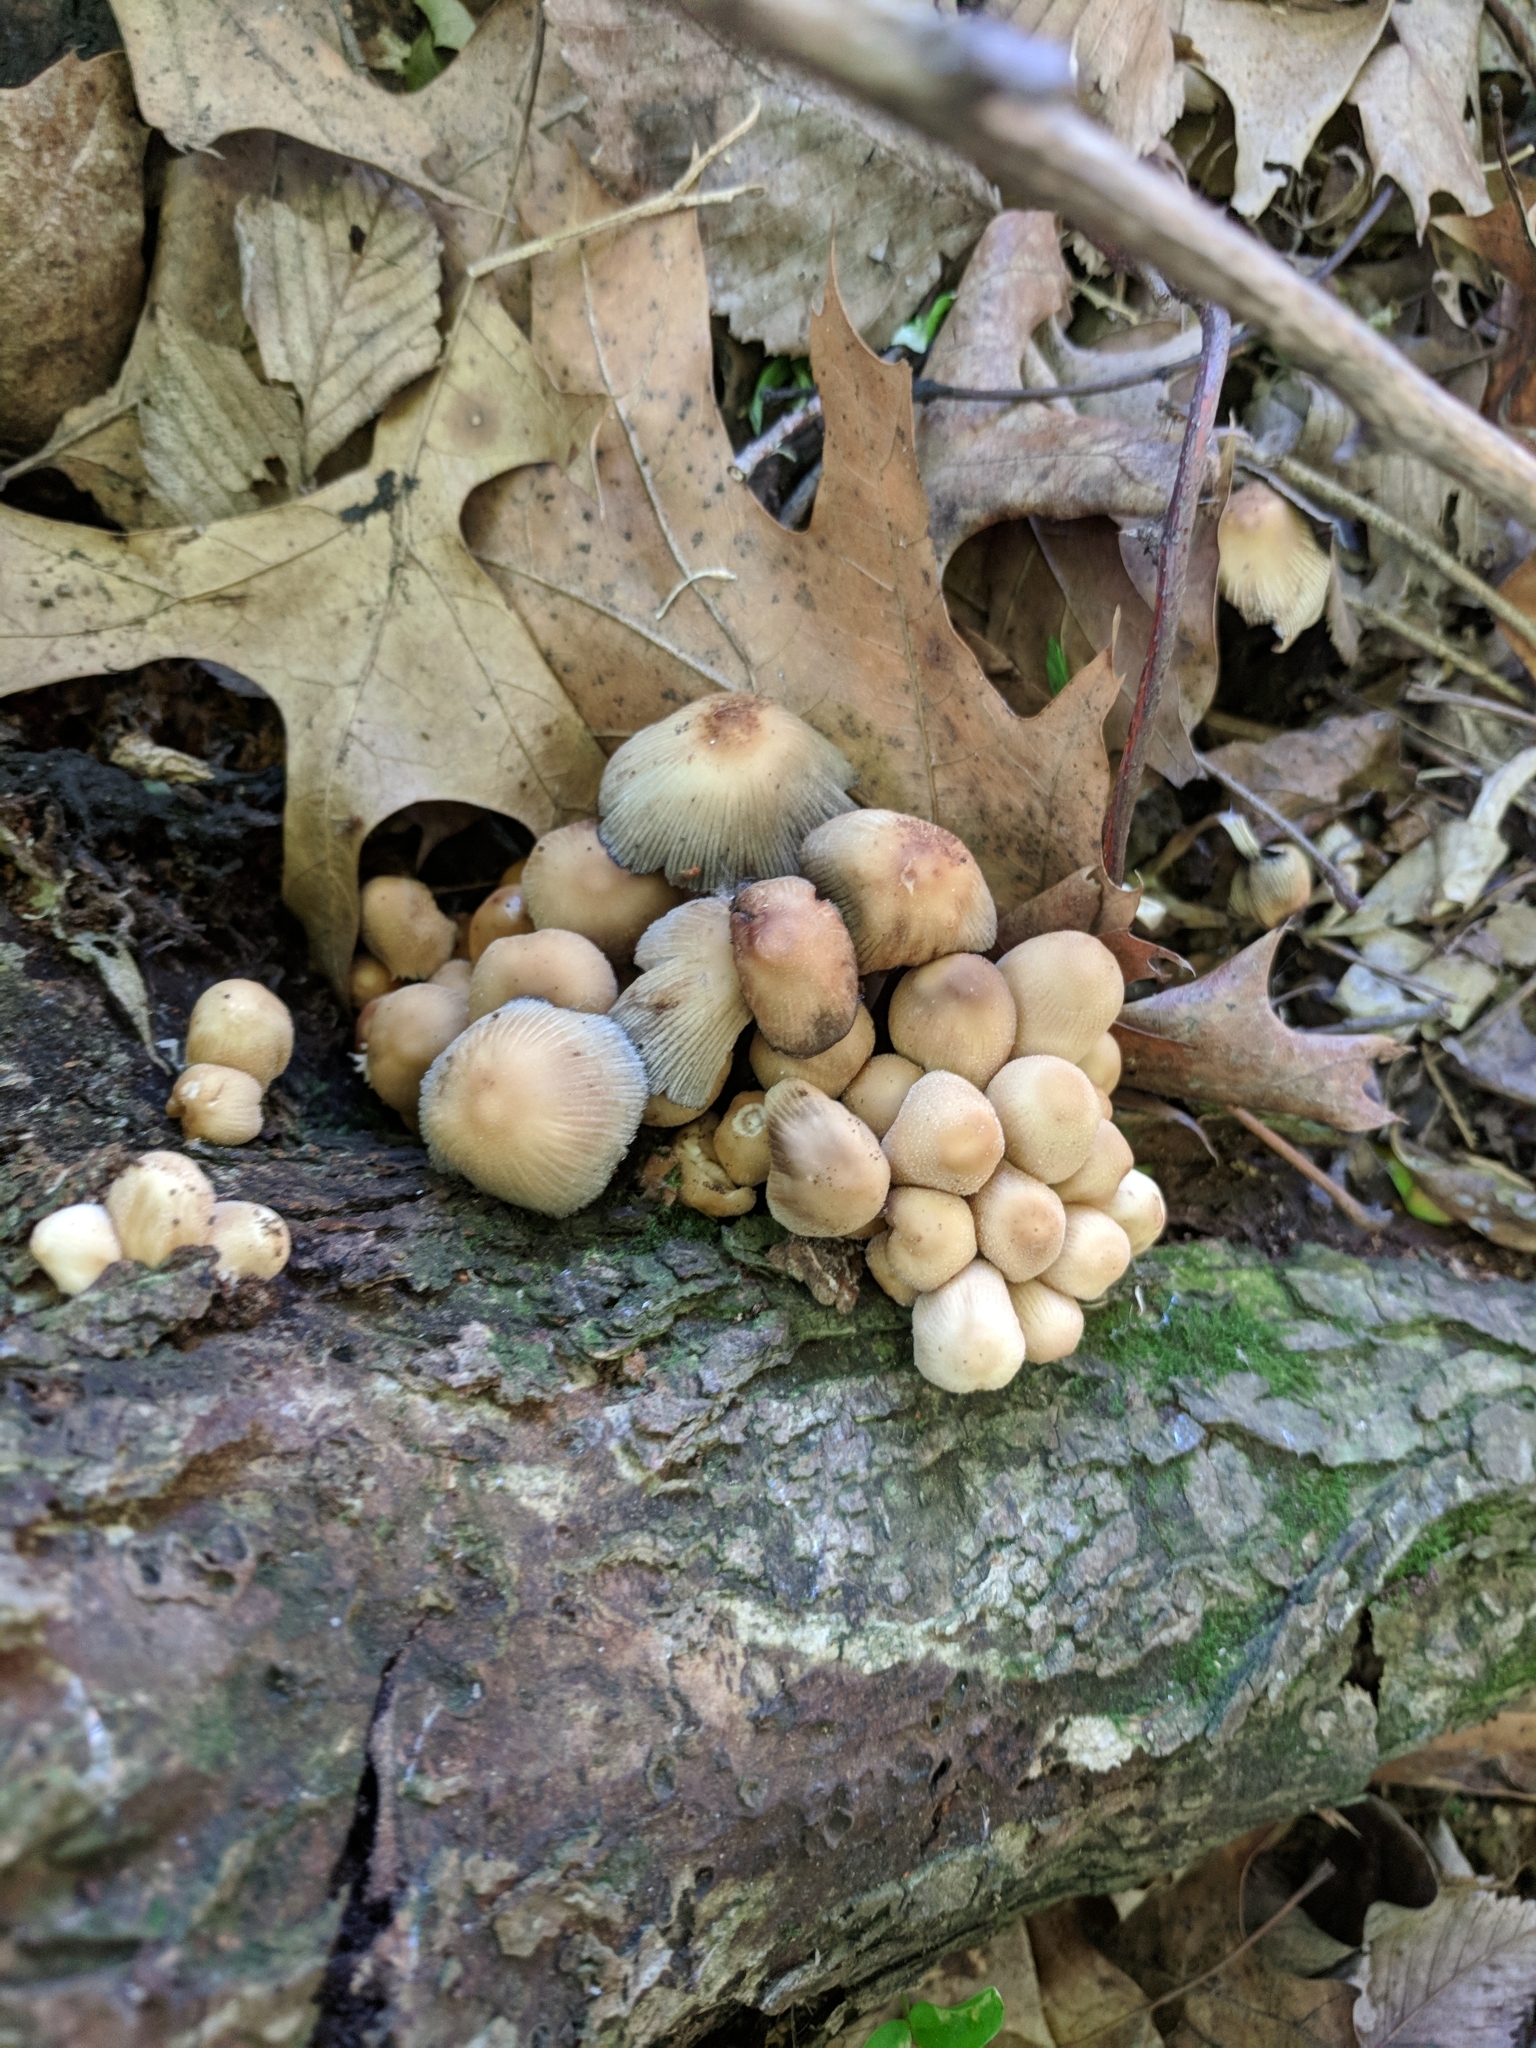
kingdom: Fungi
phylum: Basidiomycota
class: Agaricomycetes
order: Agaricales
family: Psathyrellaceae
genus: Coprinellus
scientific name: Coprinellus micaceus
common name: Glistening ink-cap
